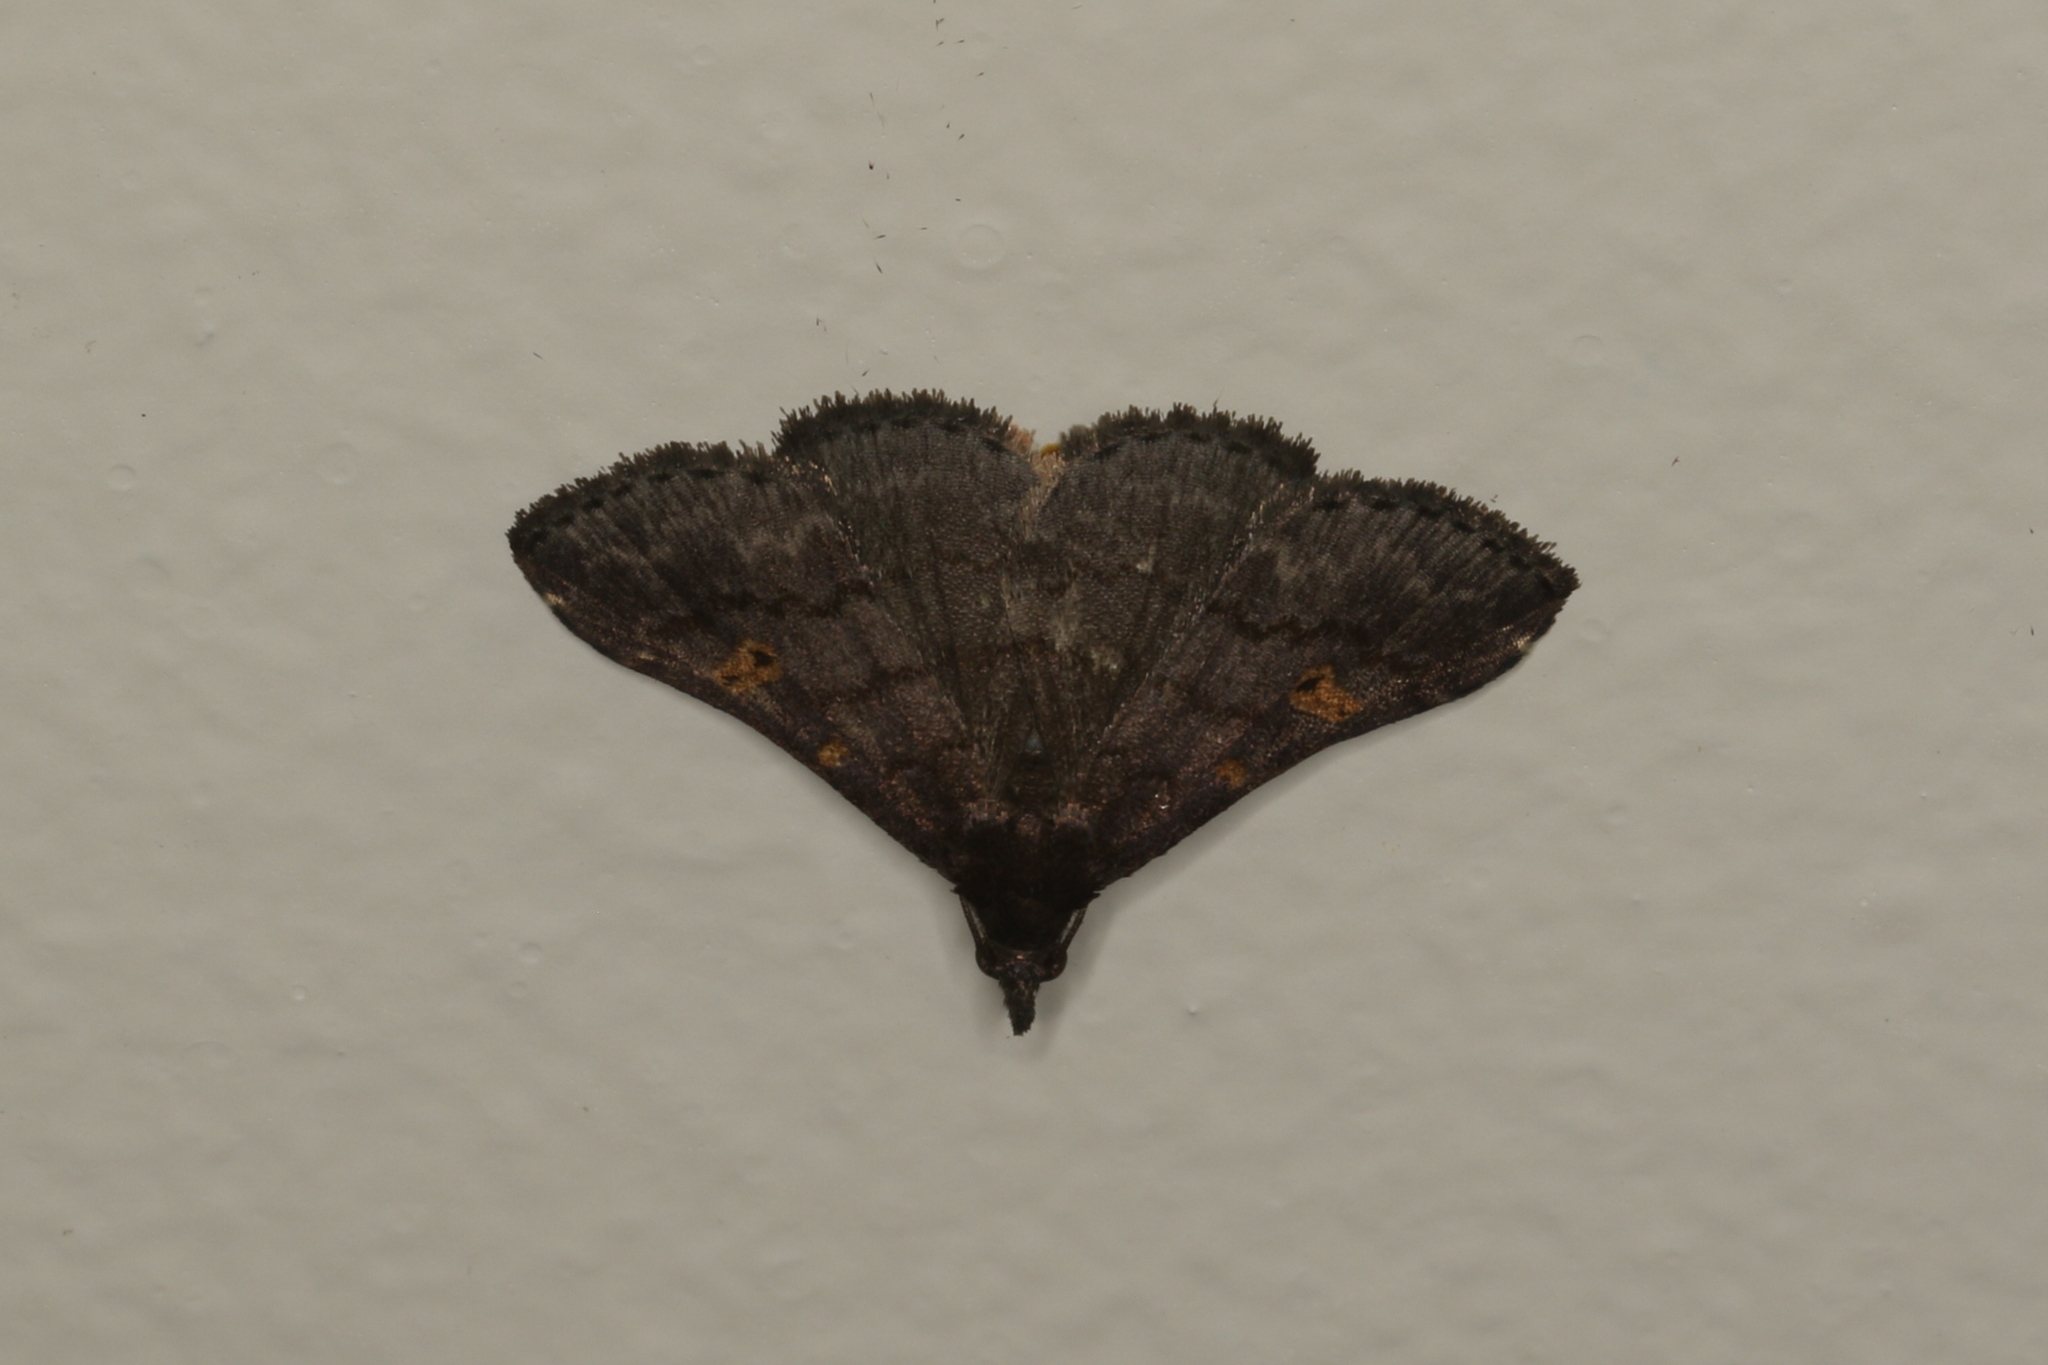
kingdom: Animalia
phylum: Arthropoda
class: Insecta
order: Lepidoptera
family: Erebidae
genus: Naarda
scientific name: Naarda xanthonephra
